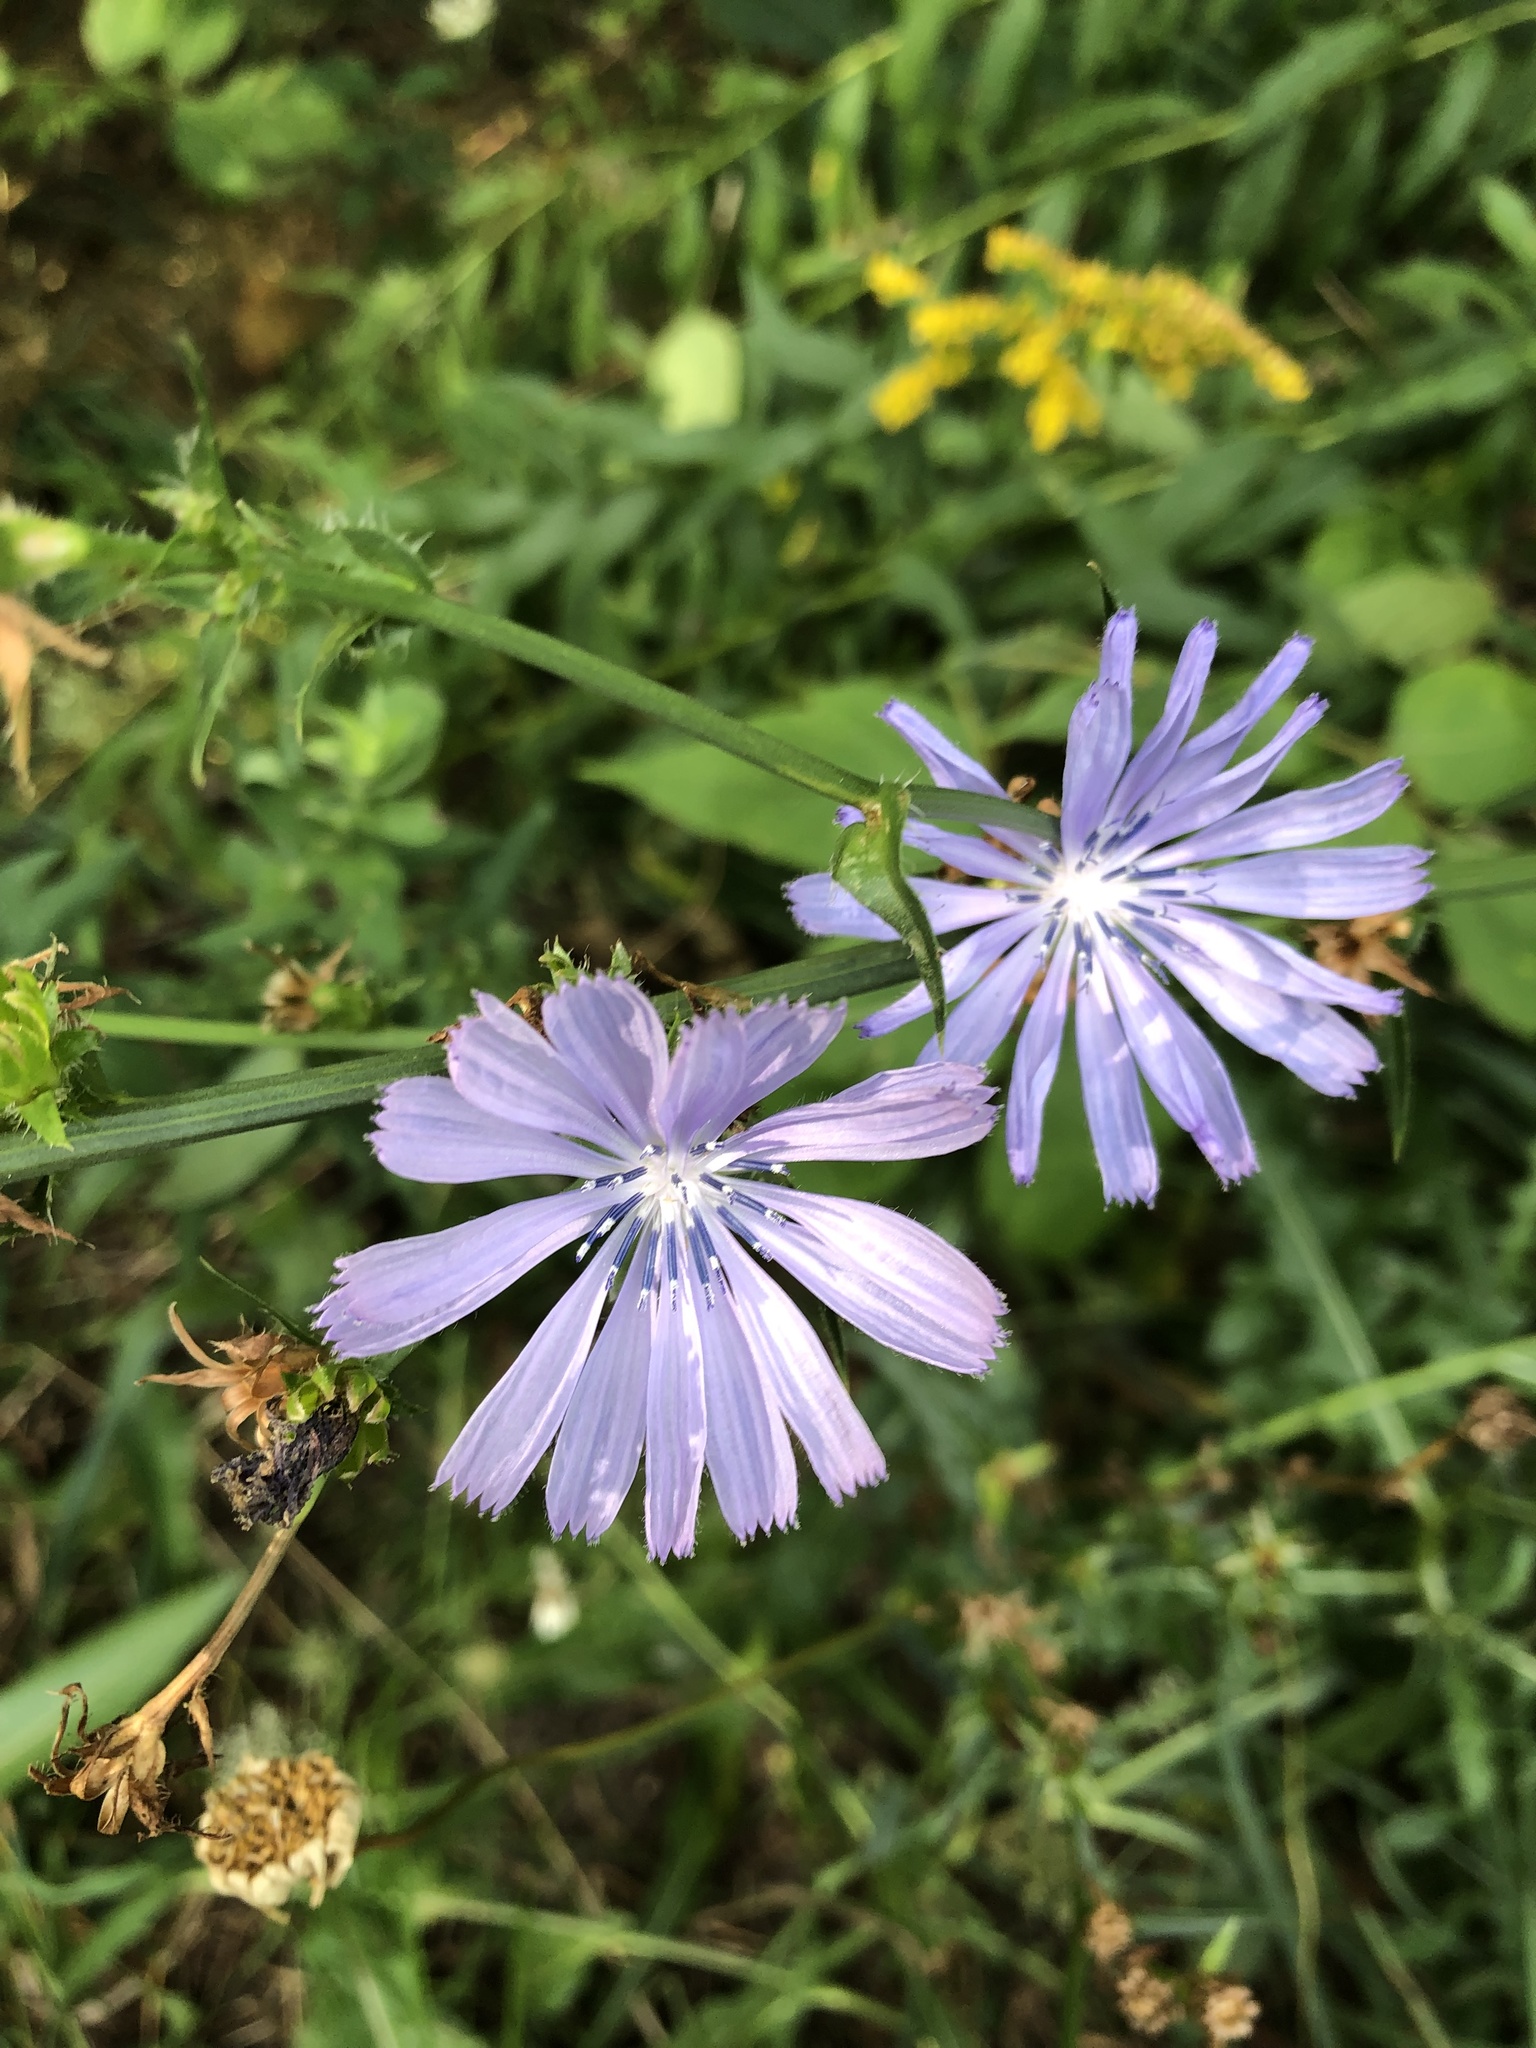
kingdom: Plantae
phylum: Tracheophyta
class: Magnoliopsida
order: Asterales
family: Asteraceae
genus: Cichorium
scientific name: Cichorium intybus
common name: Chicory
